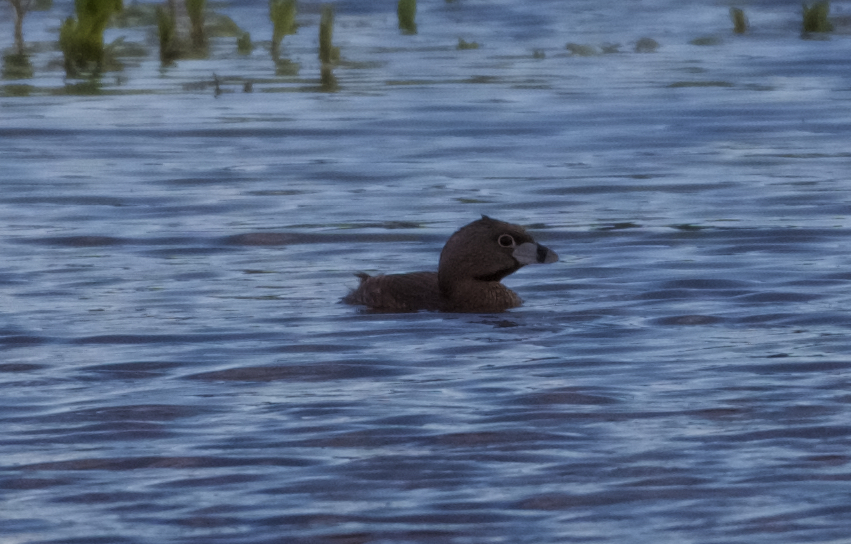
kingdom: Animalia
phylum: Chordata
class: Aves
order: Podicipediformes
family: Podicipedidae
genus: Podilymbus
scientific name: Podilymbus podiceps
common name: Pied-billed grebe
